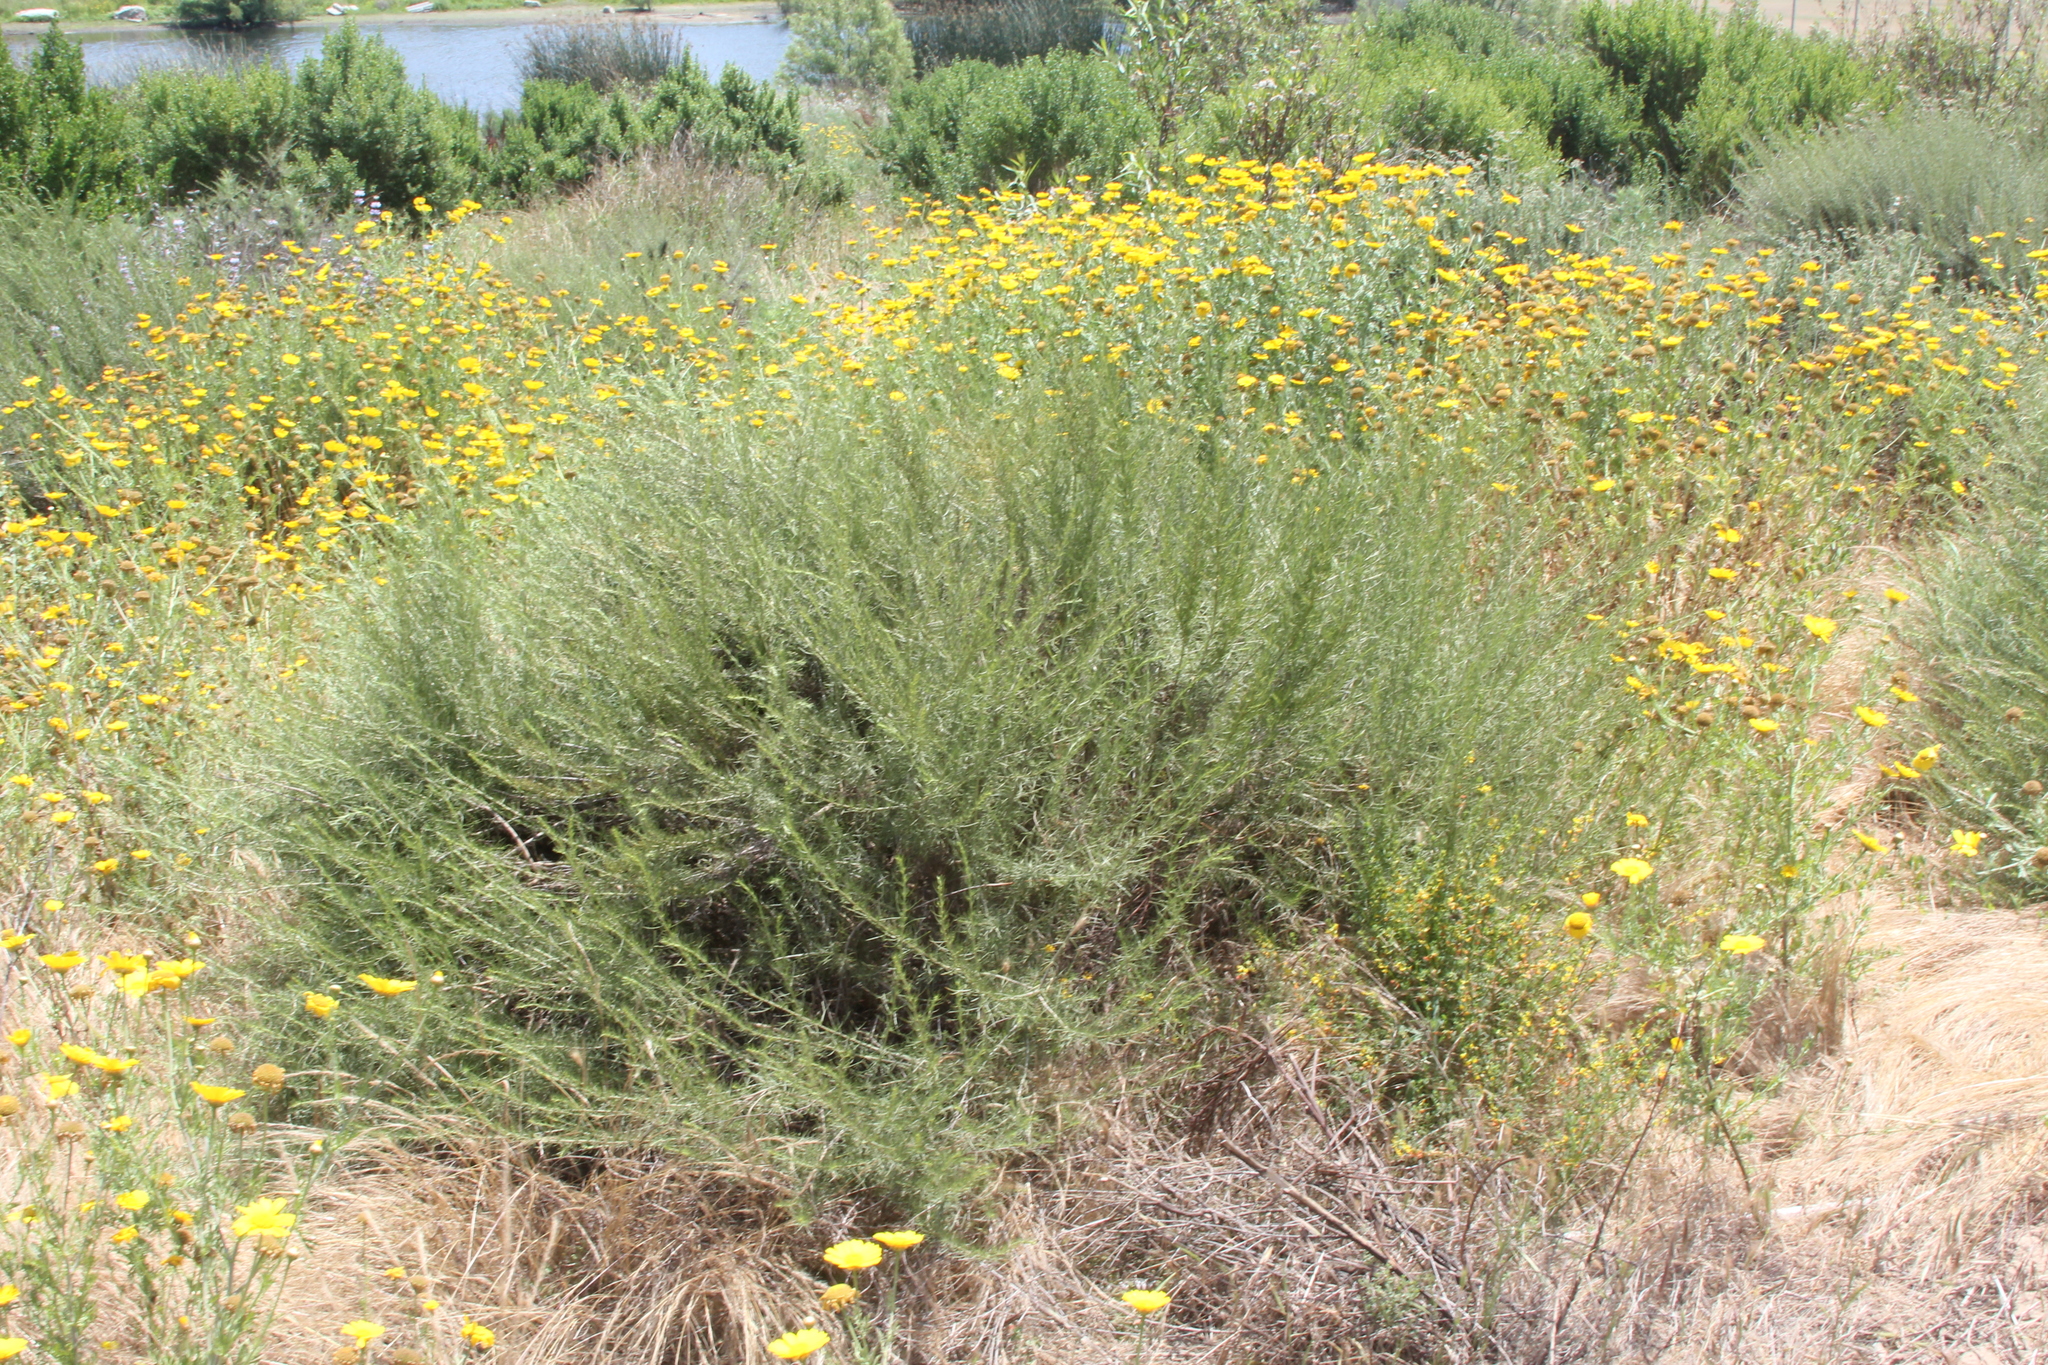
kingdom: Plantae
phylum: Tracheophyta
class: Magnoliopsida
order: Asterales
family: Asteraceae
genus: Artemisia
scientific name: Artemisia californica
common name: California sagebrush
